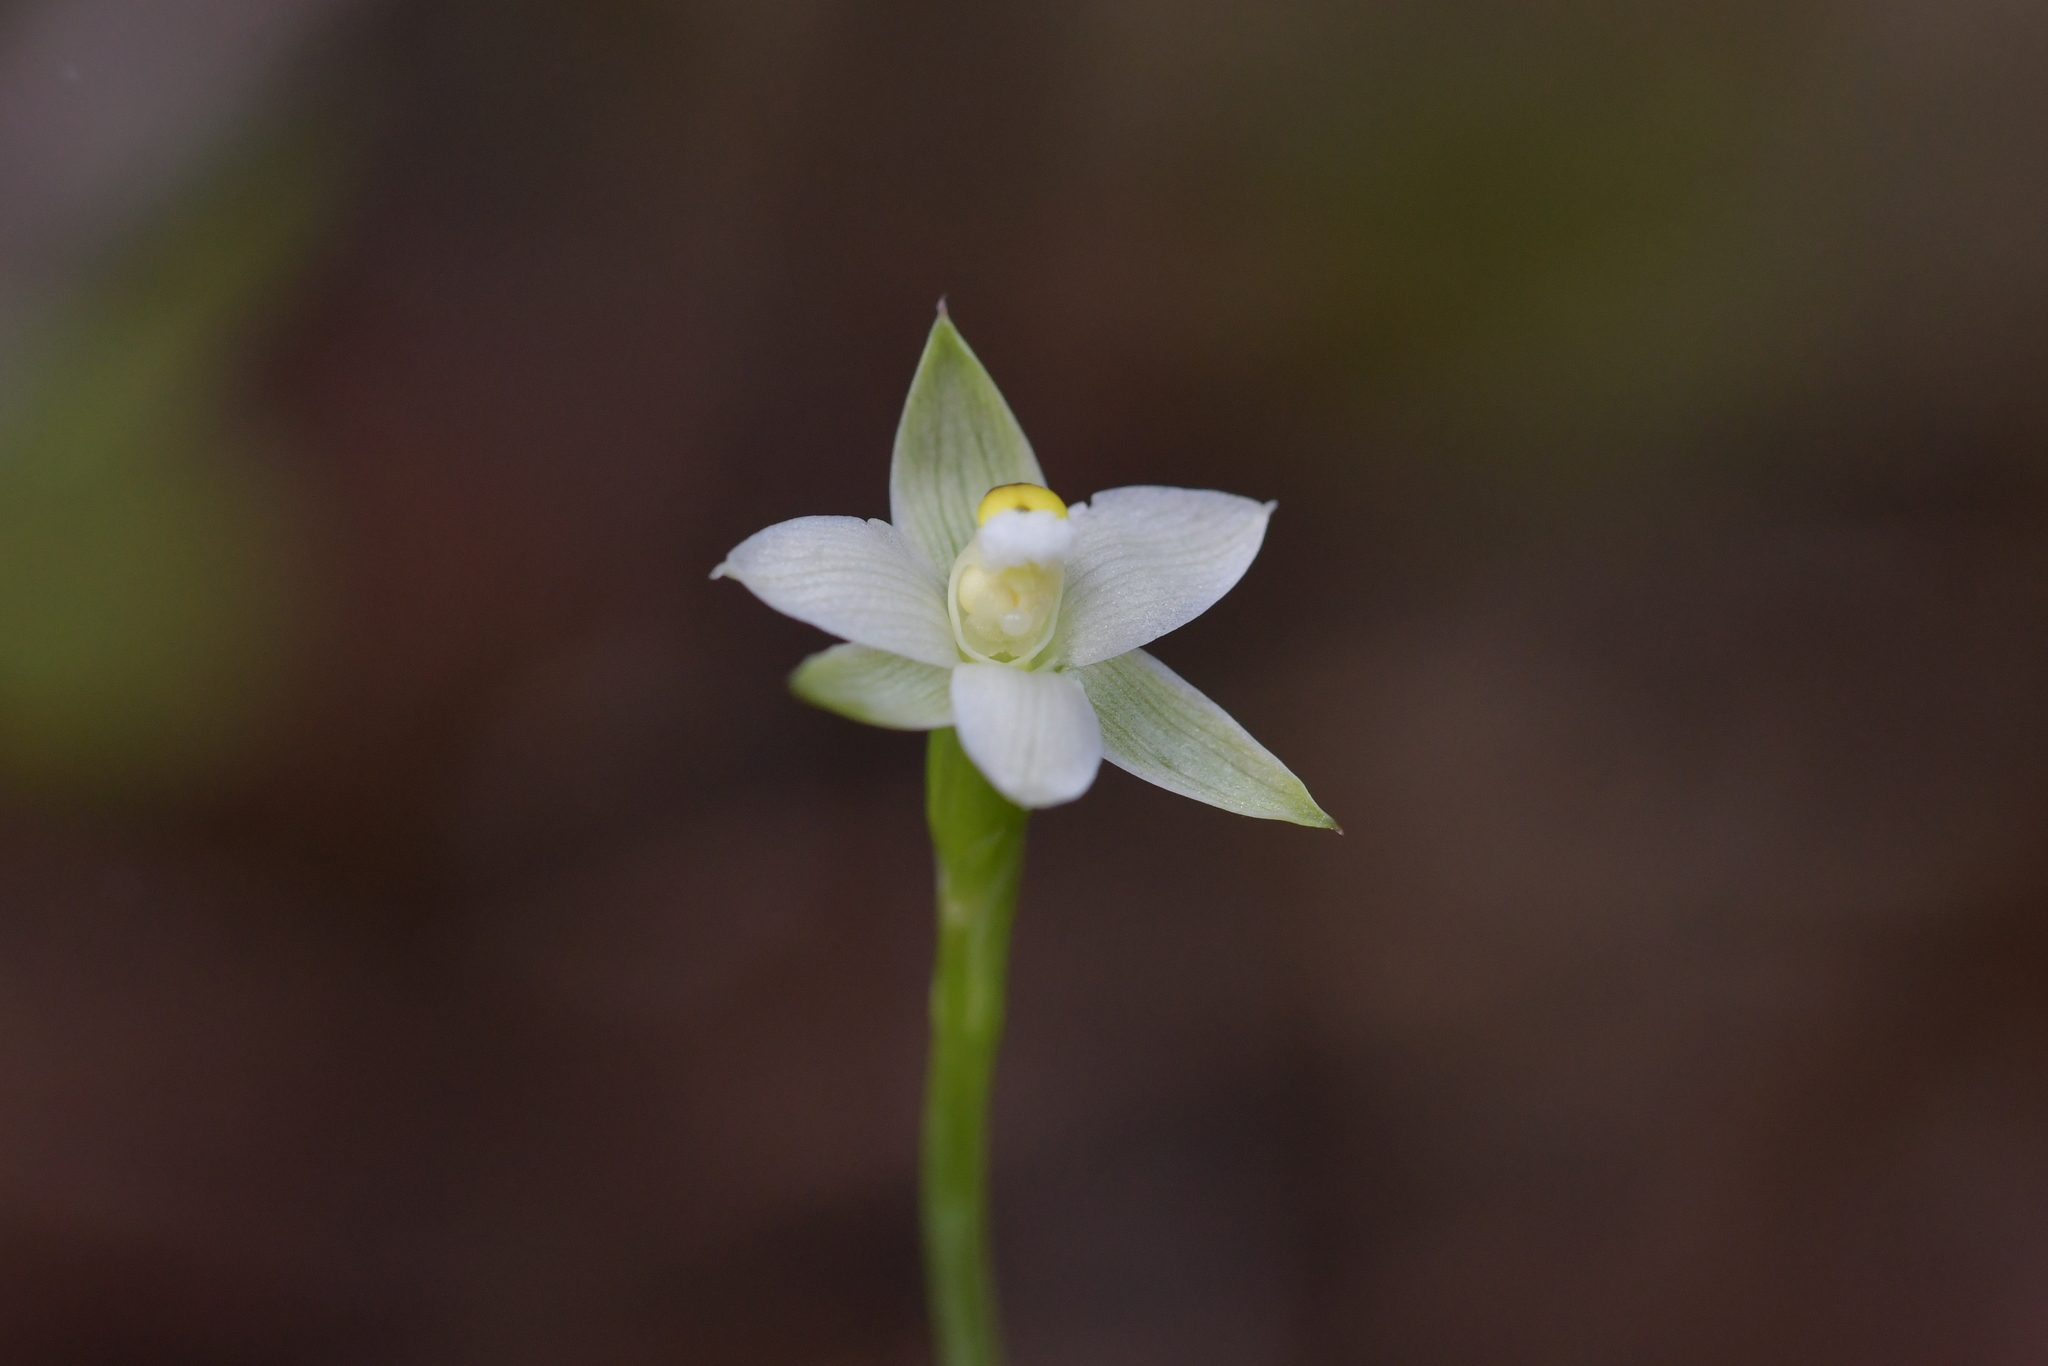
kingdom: Plantae
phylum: Tracheophyta
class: Liliopsida
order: Asparagales
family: Orchidaceae
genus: Thelymitra
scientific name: Thelymitra longifolia
